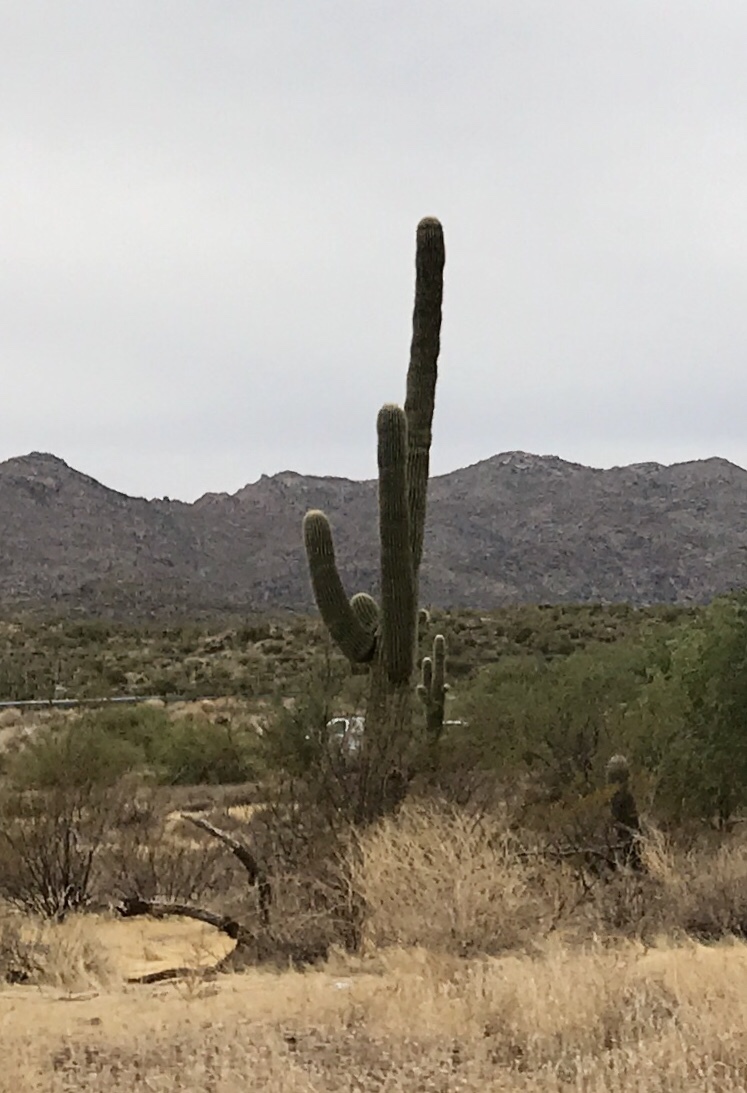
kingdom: Plantae
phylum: Tracheophyta
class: Magnoliopsida
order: Caryophyllales
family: Cactaceae
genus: Carnegiea
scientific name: Carnegiea gigantea
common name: Saguaro
